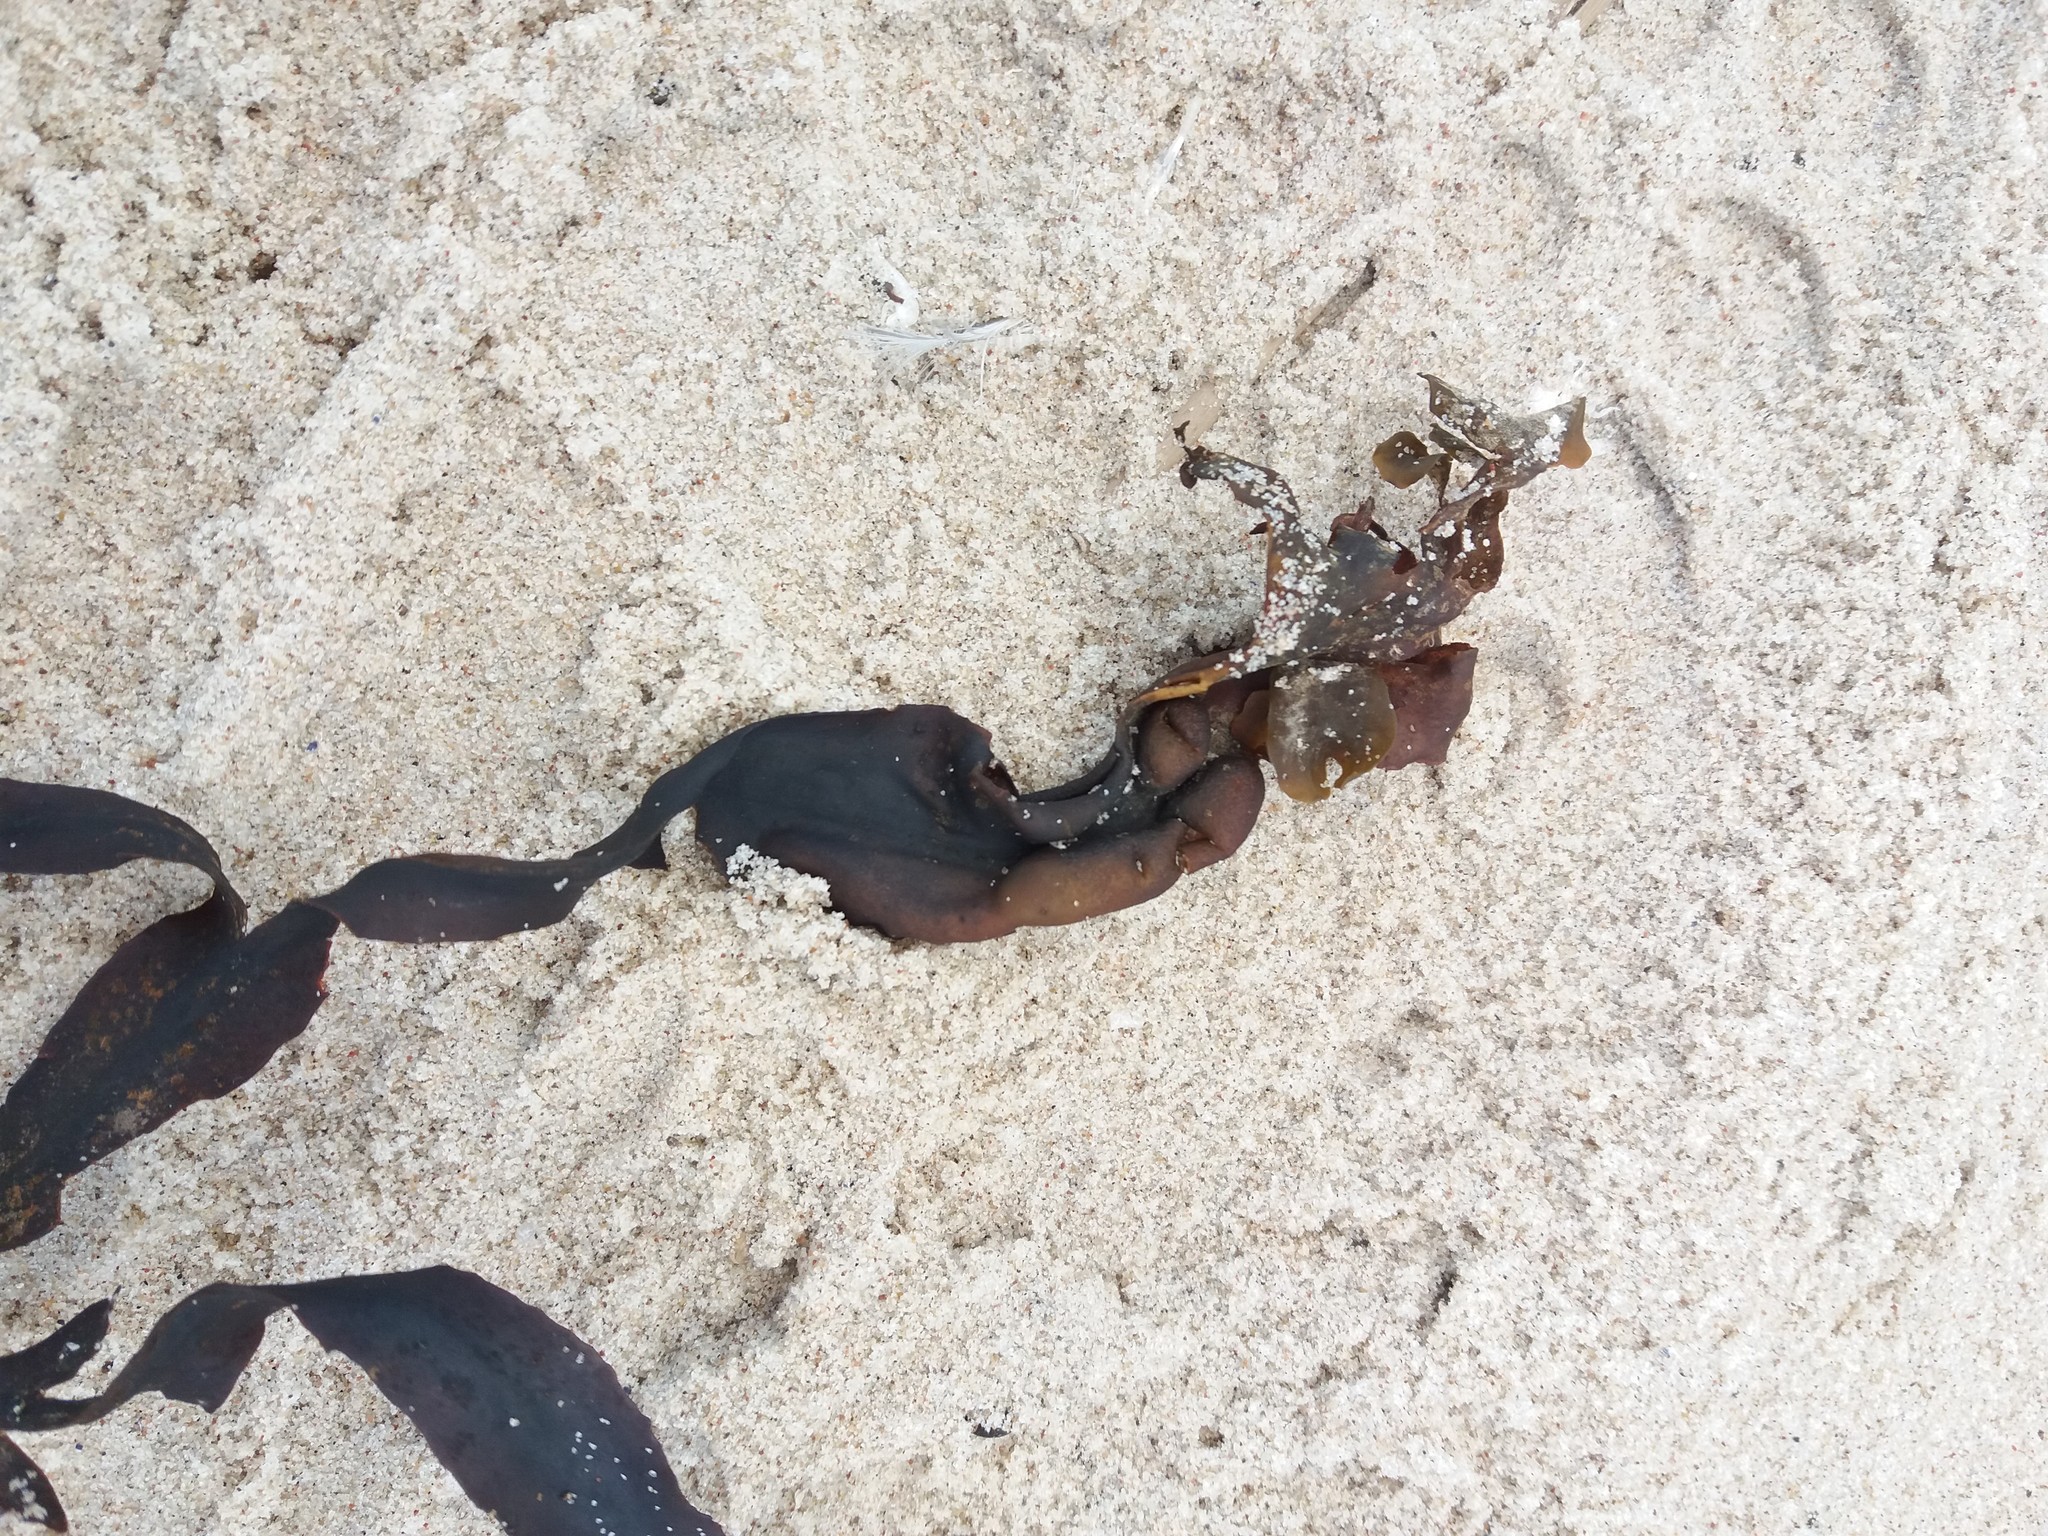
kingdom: Chromista
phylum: Ochrophyta
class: Phaeophyceae
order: Fucales
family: Fucaceae
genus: Fucus
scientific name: Fucus vesiculosus
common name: Bladder wrack
